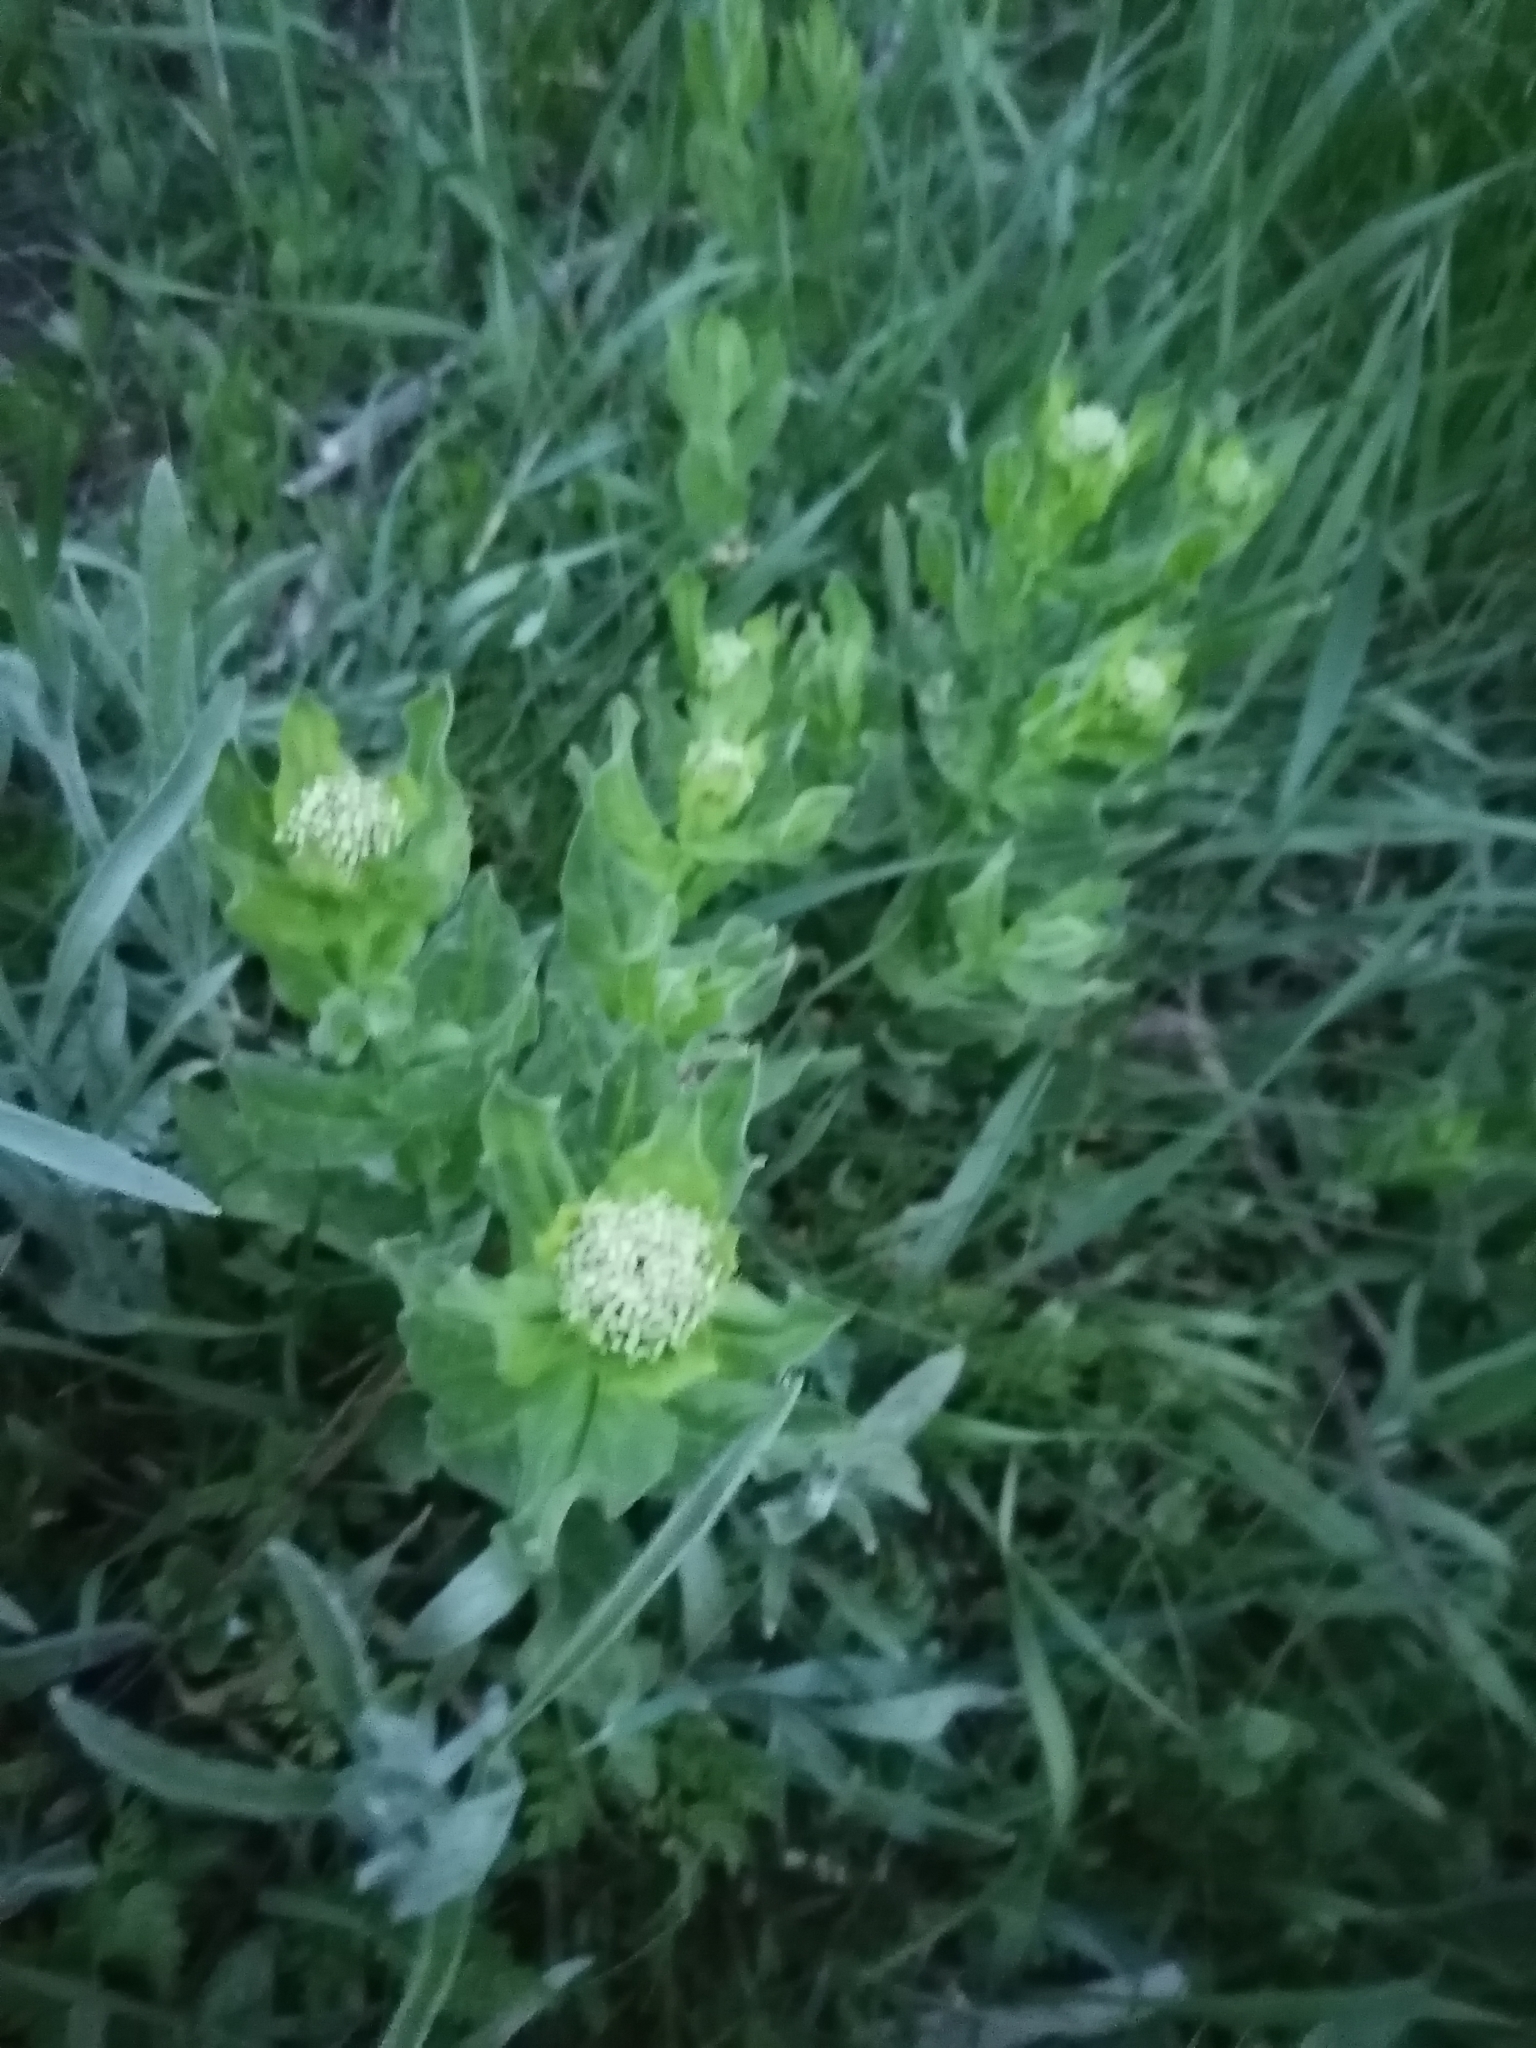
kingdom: Plantae
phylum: Tracheophyta
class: Magnoliopsida
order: Brassicales
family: Brassicaceae
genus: Lepidium
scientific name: Lepidium draba
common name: Hoary cress
